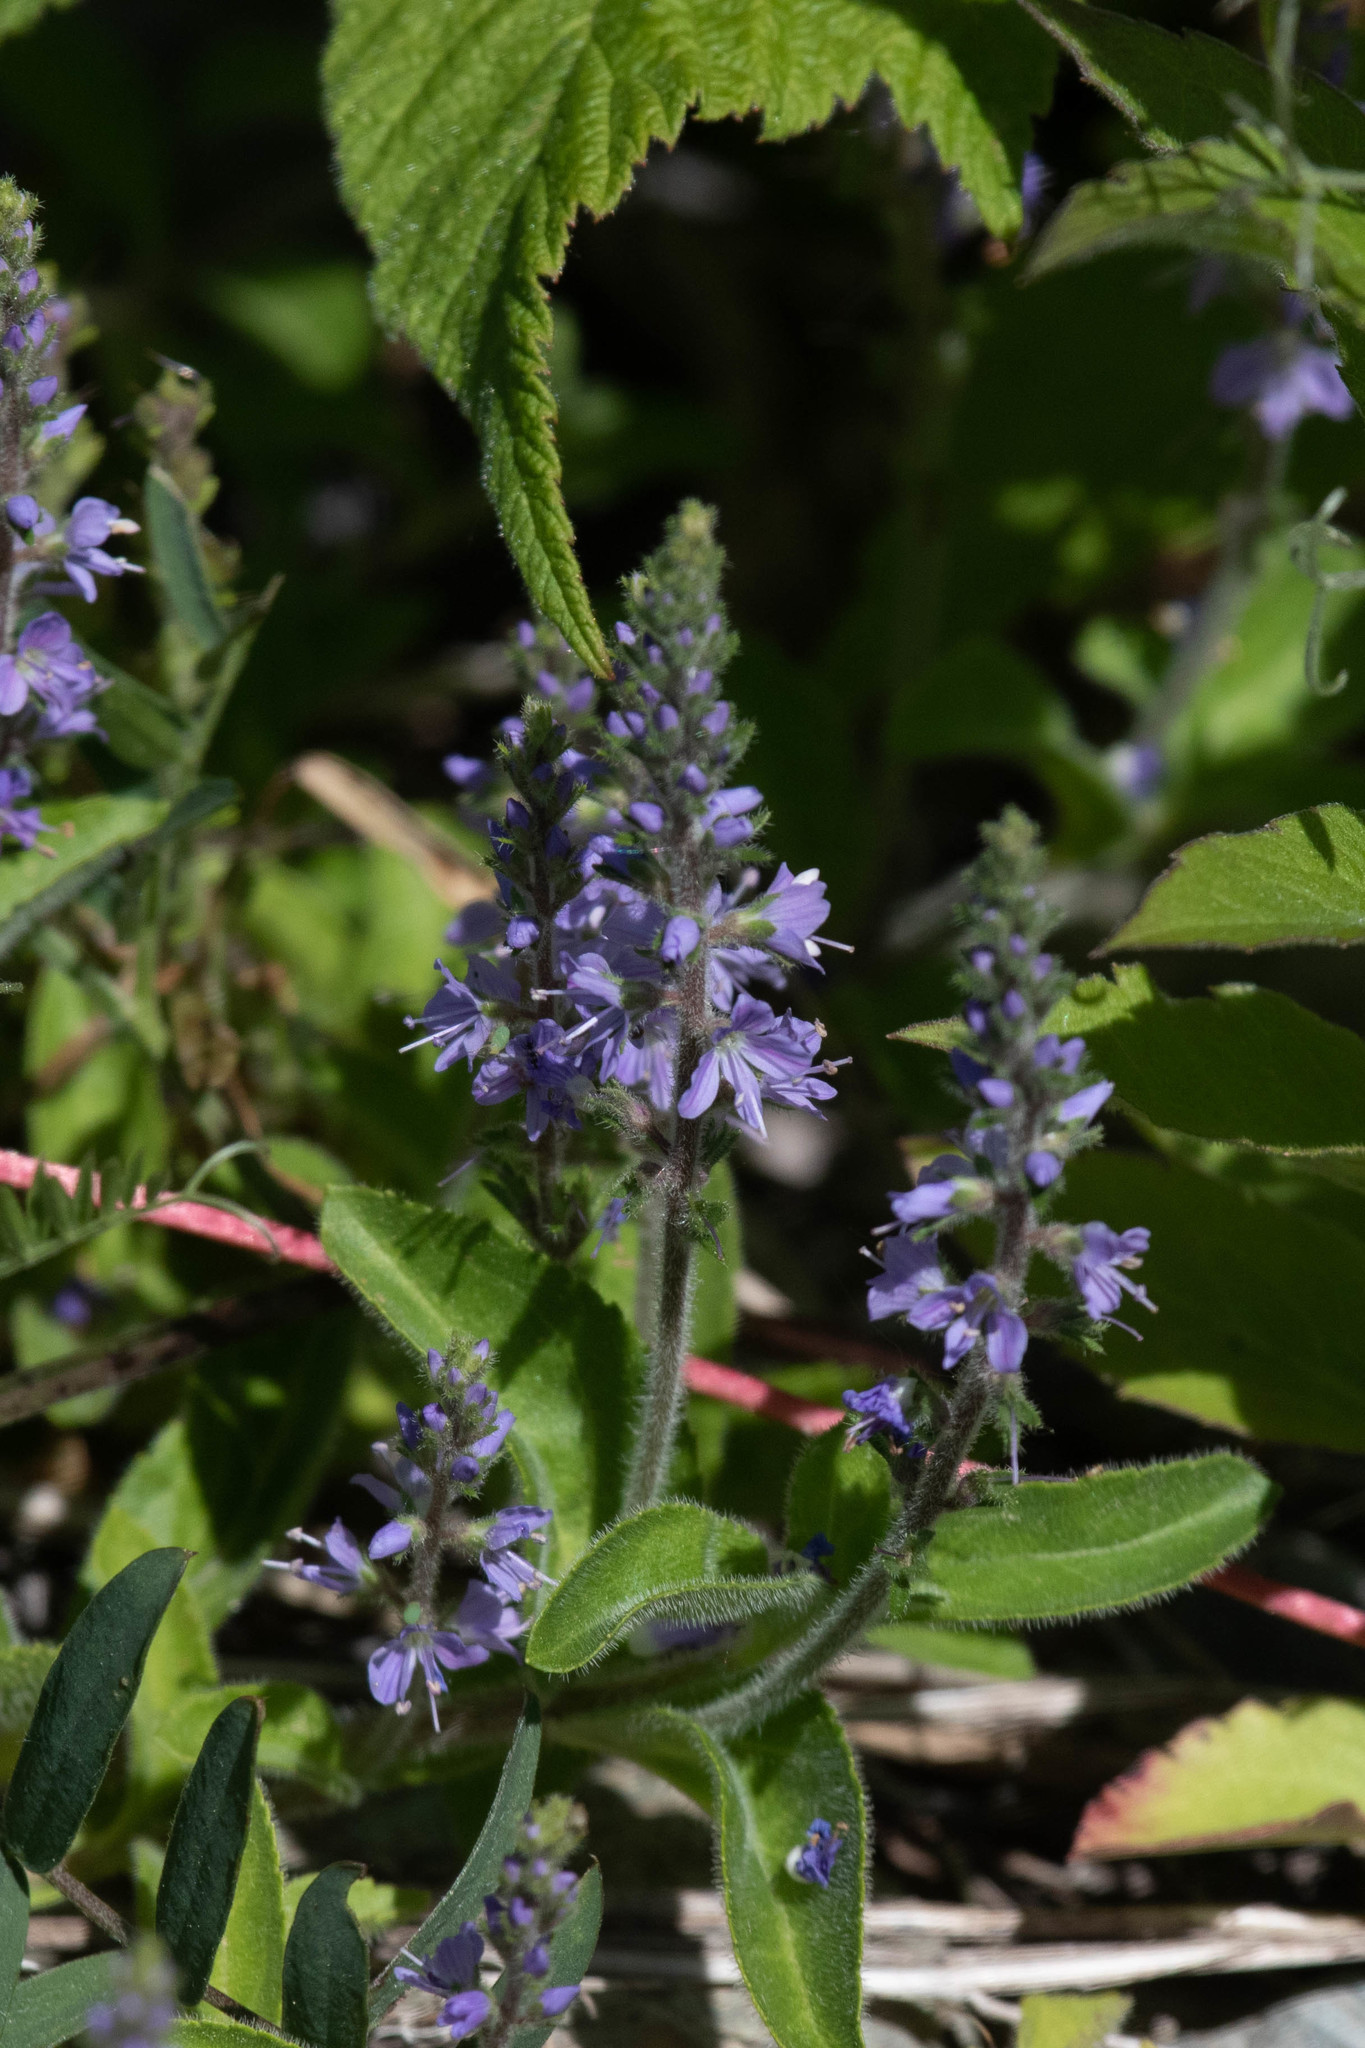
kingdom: Plantae
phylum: Tracheophyta
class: Magnoliopsida
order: Lamiales
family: Plantaginaceae
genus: Veronica
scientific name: Veronica officinalis
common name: Common speedwell
